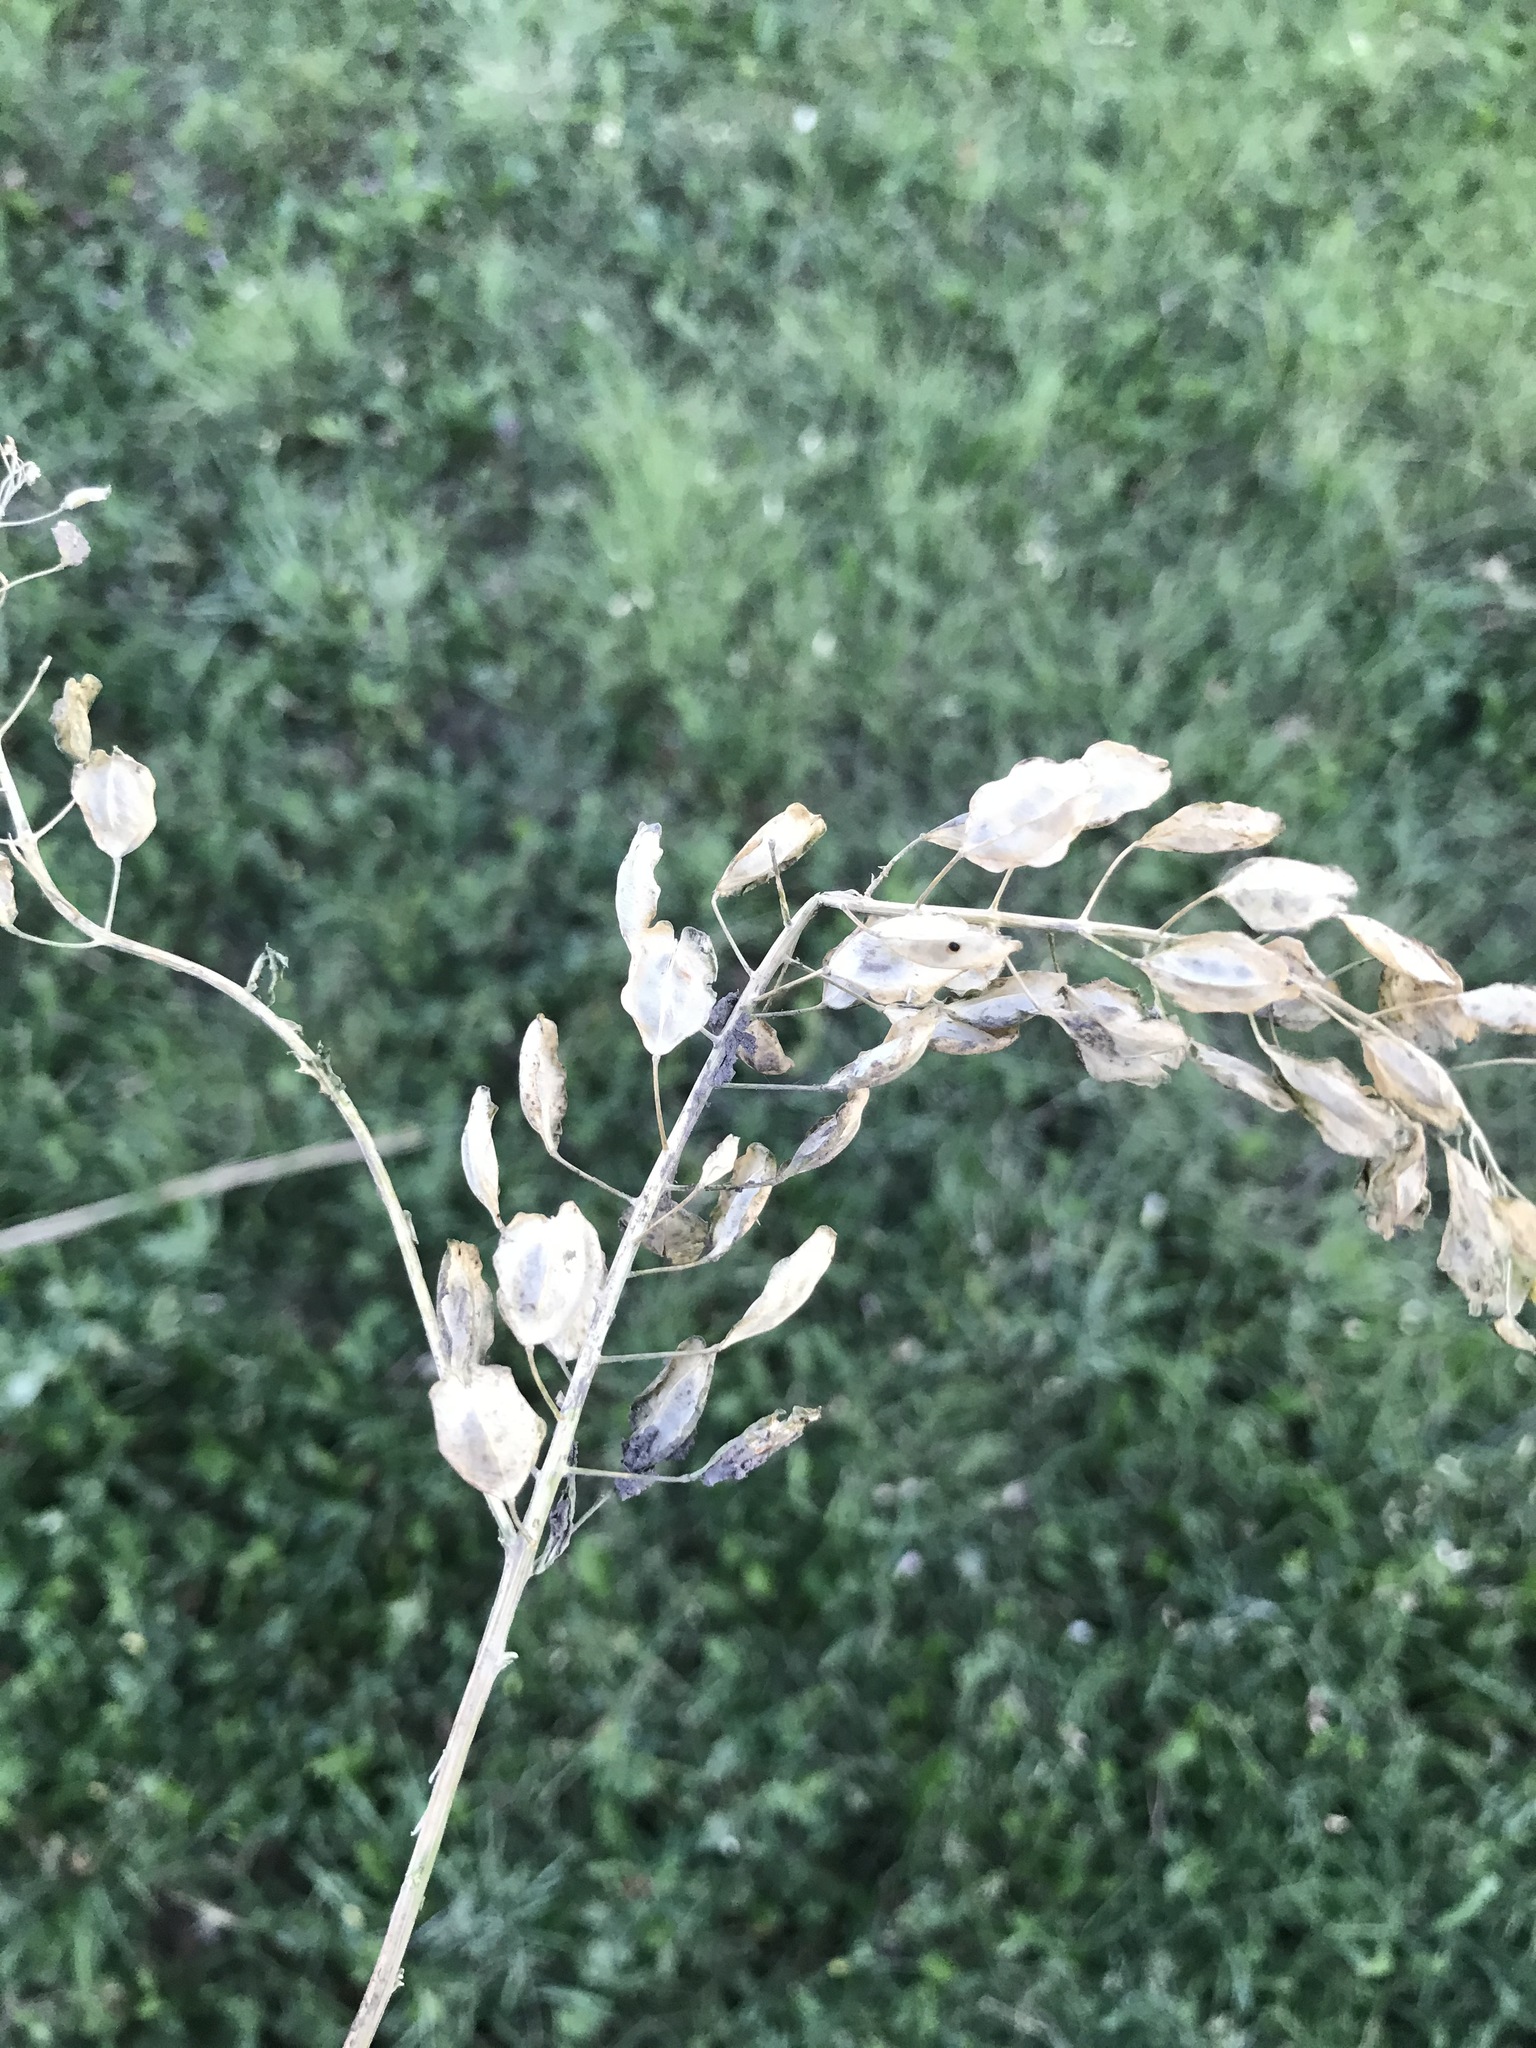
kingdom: Plantae
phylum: Tracheophyta
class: Magnoliopsida
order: Brassicales
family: Brassicaceae
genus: Thlaspi
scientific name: Thlaspi arvense
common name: Field pennycress
